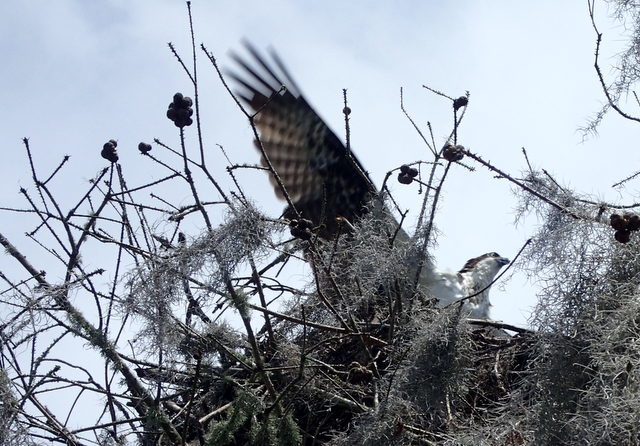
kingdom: Animalia
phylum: Chordata
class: Aves
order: Accipitriformes
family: Pandionidae
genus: Pandion
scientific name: Pandion haliaetus
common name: Osprey
